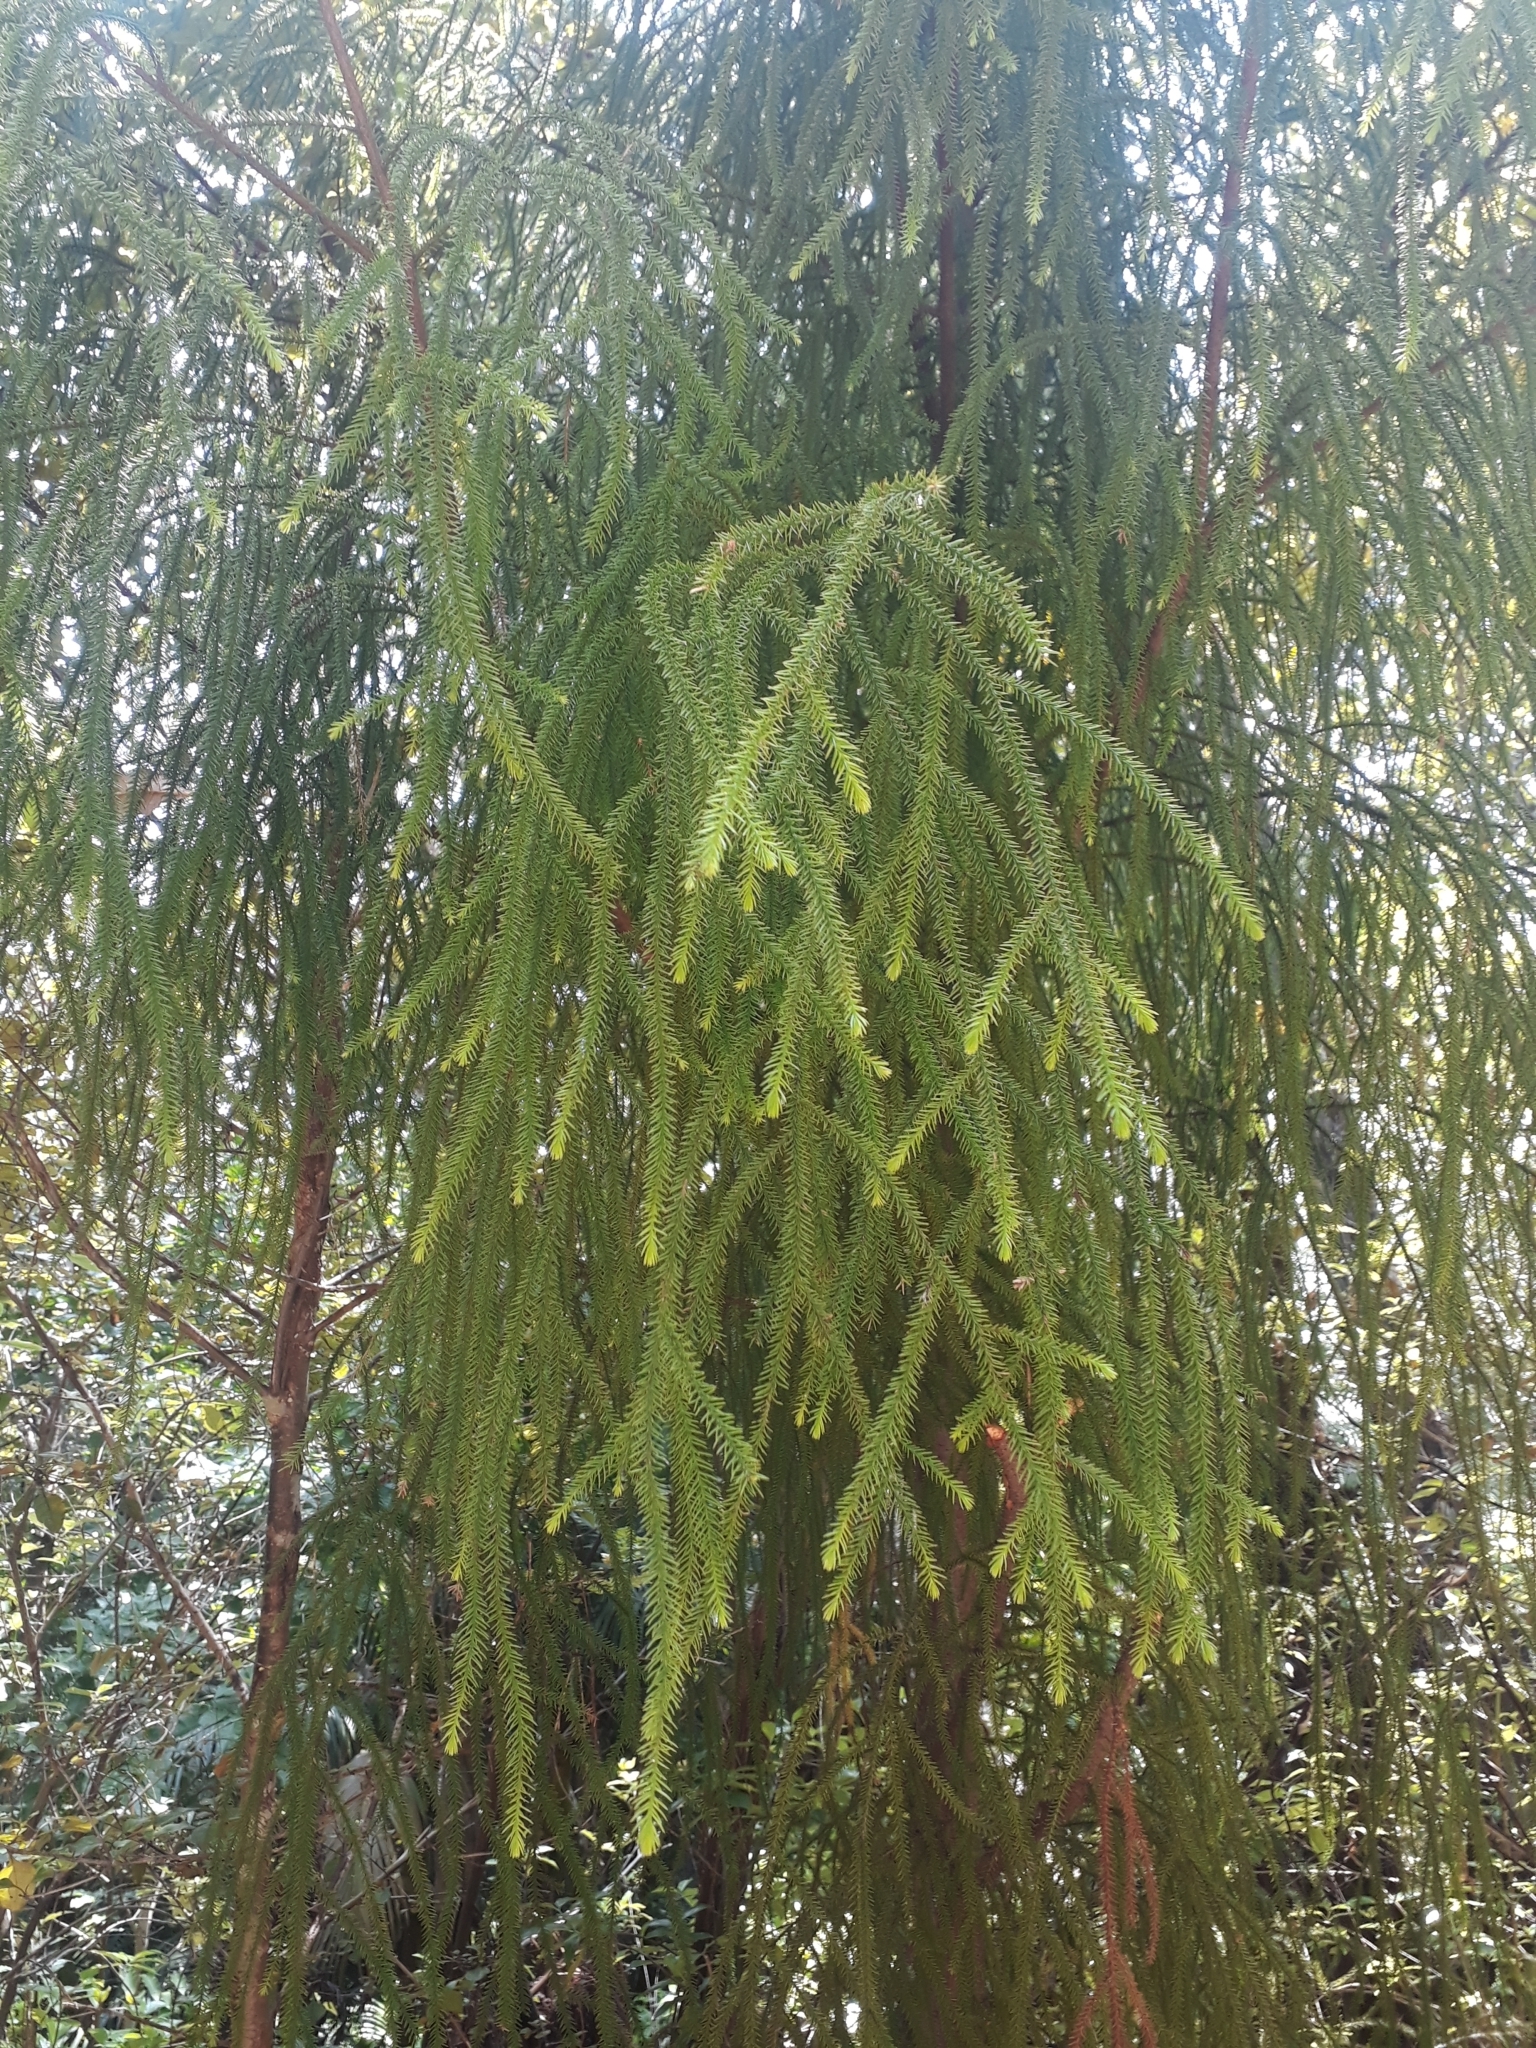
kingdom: Plantae
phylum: Tracheophyta
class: Pinopsida
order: Pinales
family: Podocarpaceae
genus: Dacrydium
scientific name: Dacrydium cupressinum
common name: Red pine
